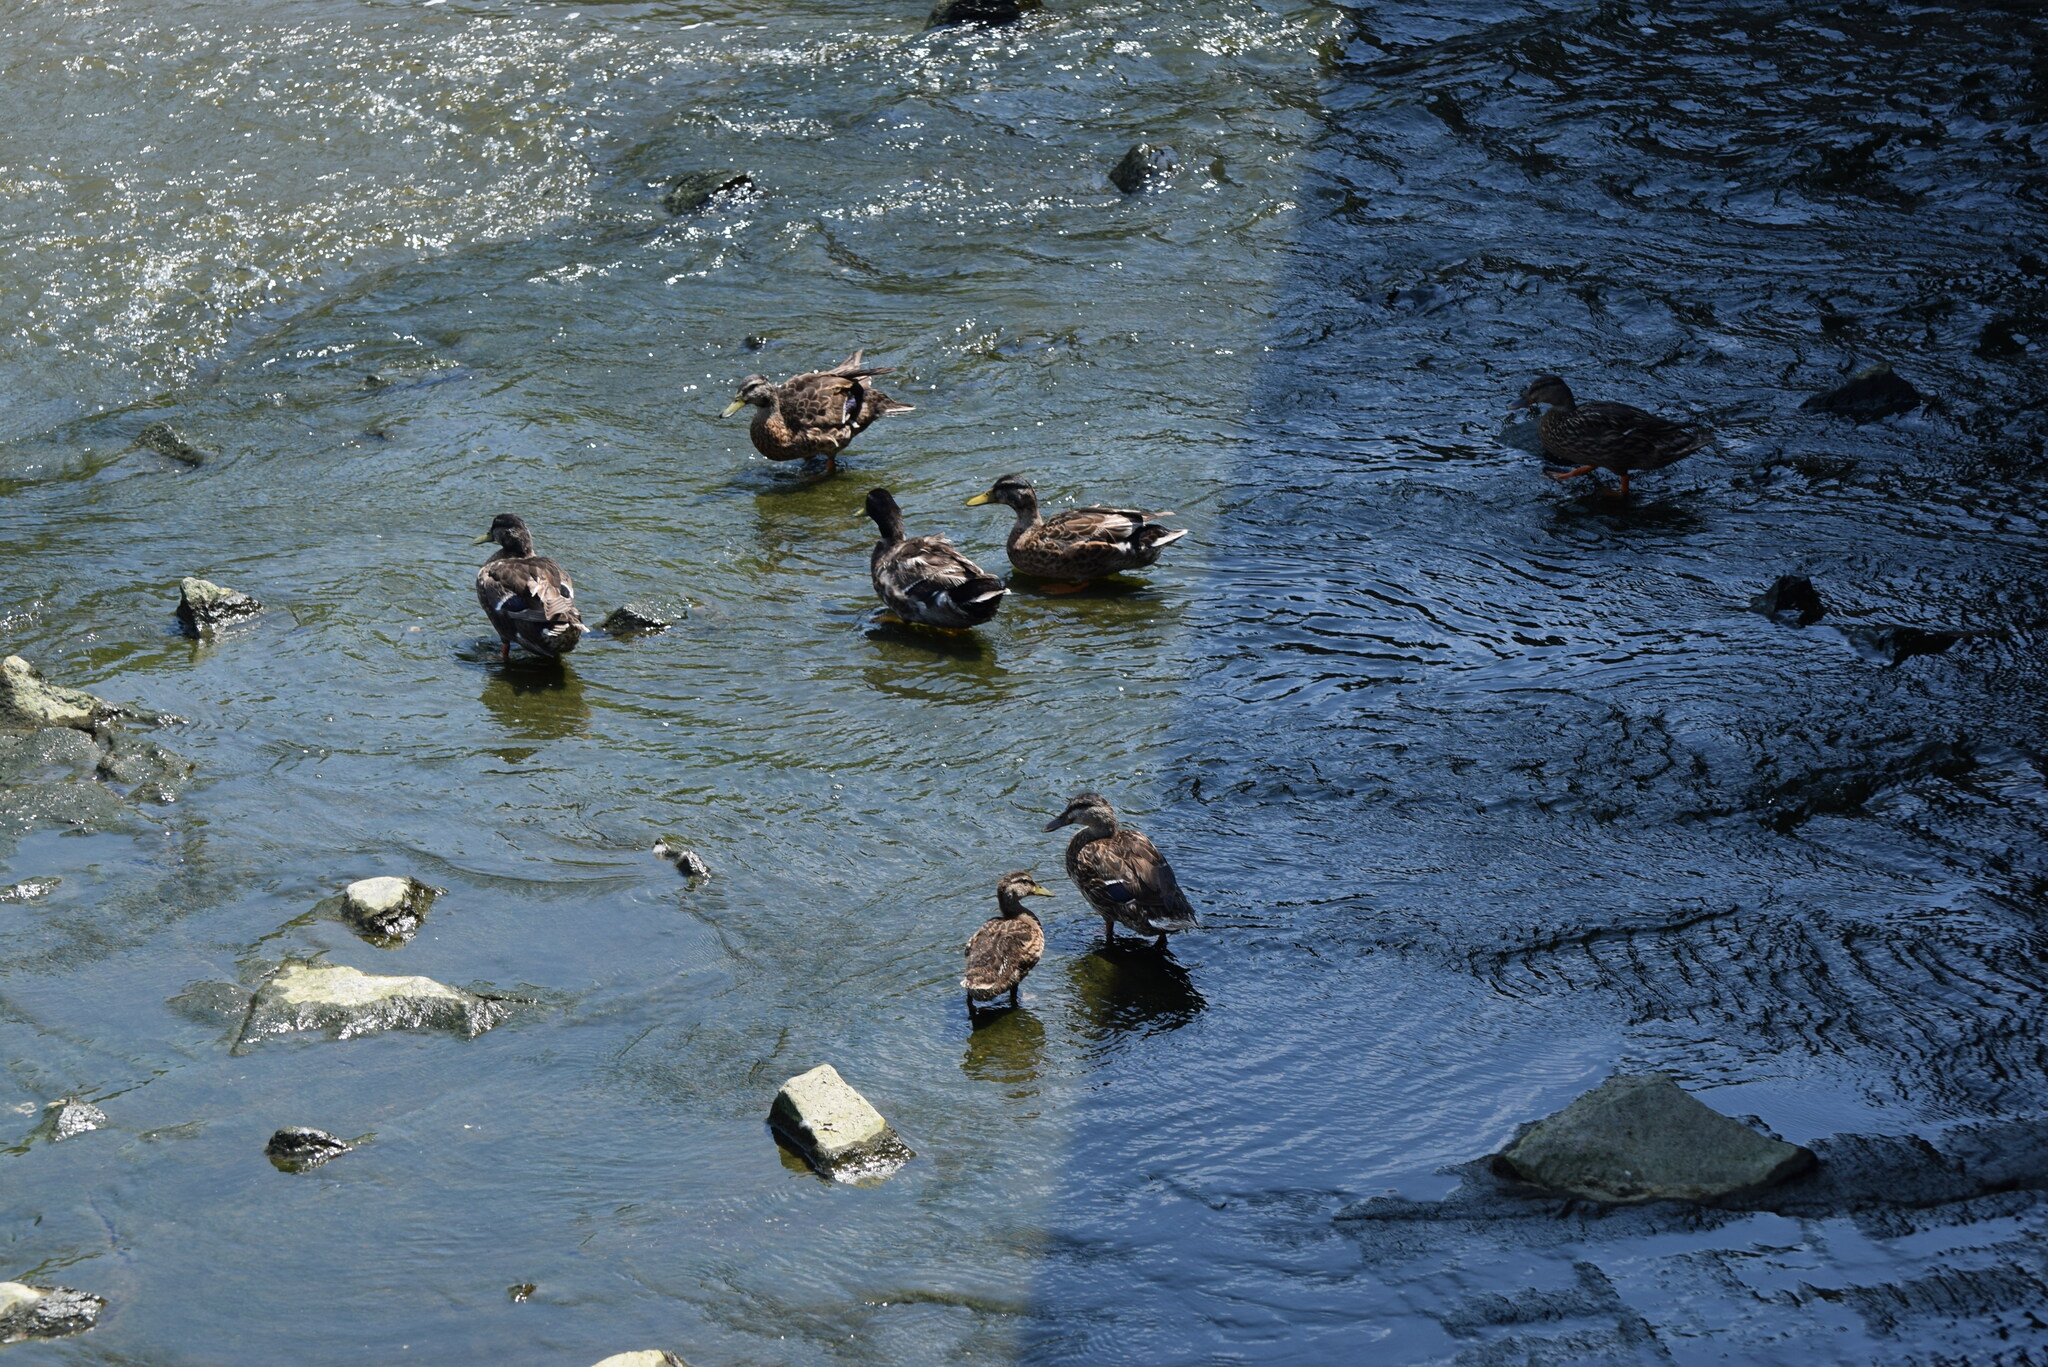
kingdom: Animalia
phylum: Chordata
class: Aves
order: Anseriformes
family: Anatidae
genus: Anas
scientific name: Anas platyrhynchos
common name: Mallard
